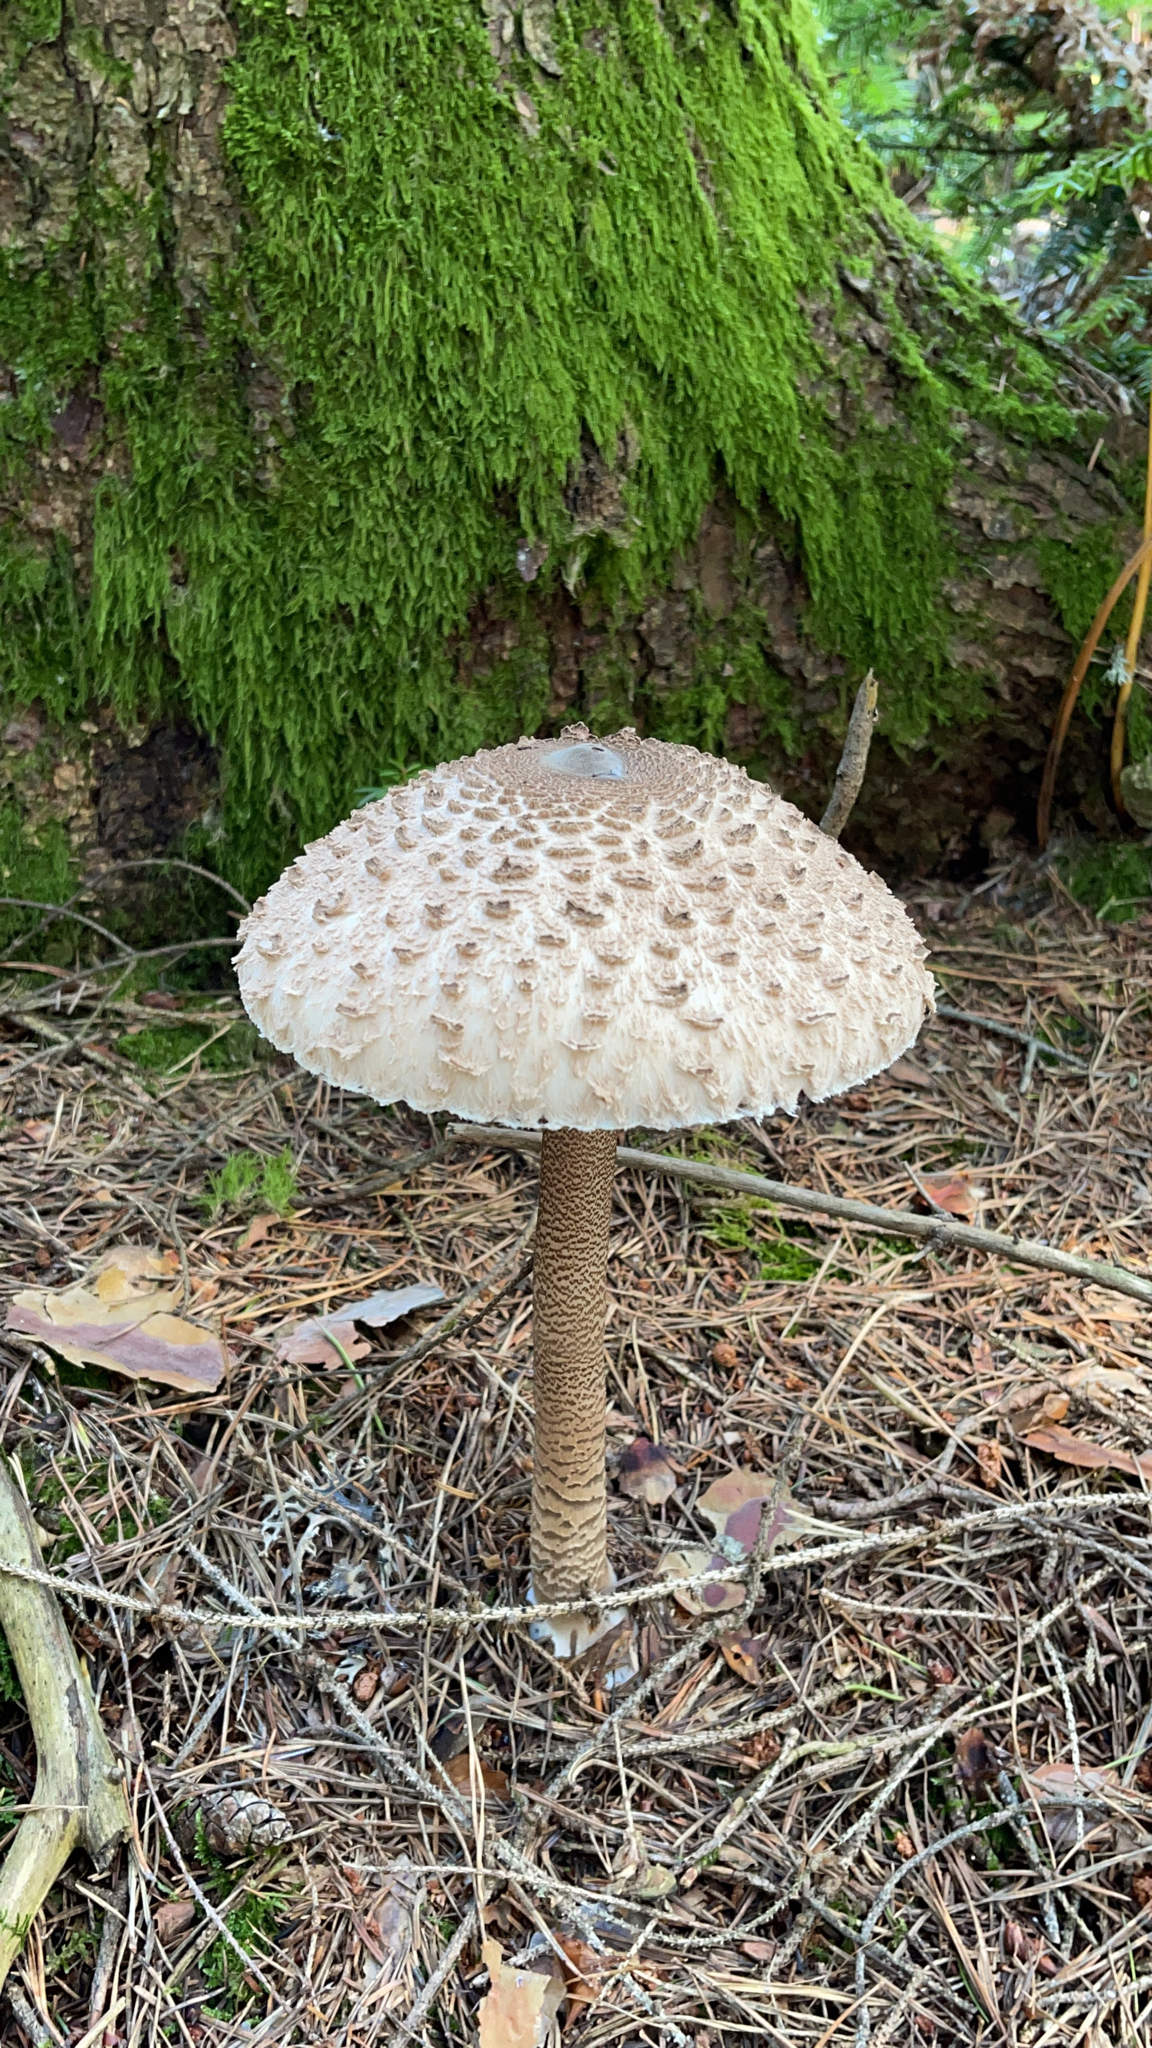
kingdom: Fungi
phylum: Basidiomycota
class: Agaricomycetes
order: Agaricales
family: Agaricaceae
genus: Macrolepiota
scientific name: Macrolepiota procera
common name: Parasol
